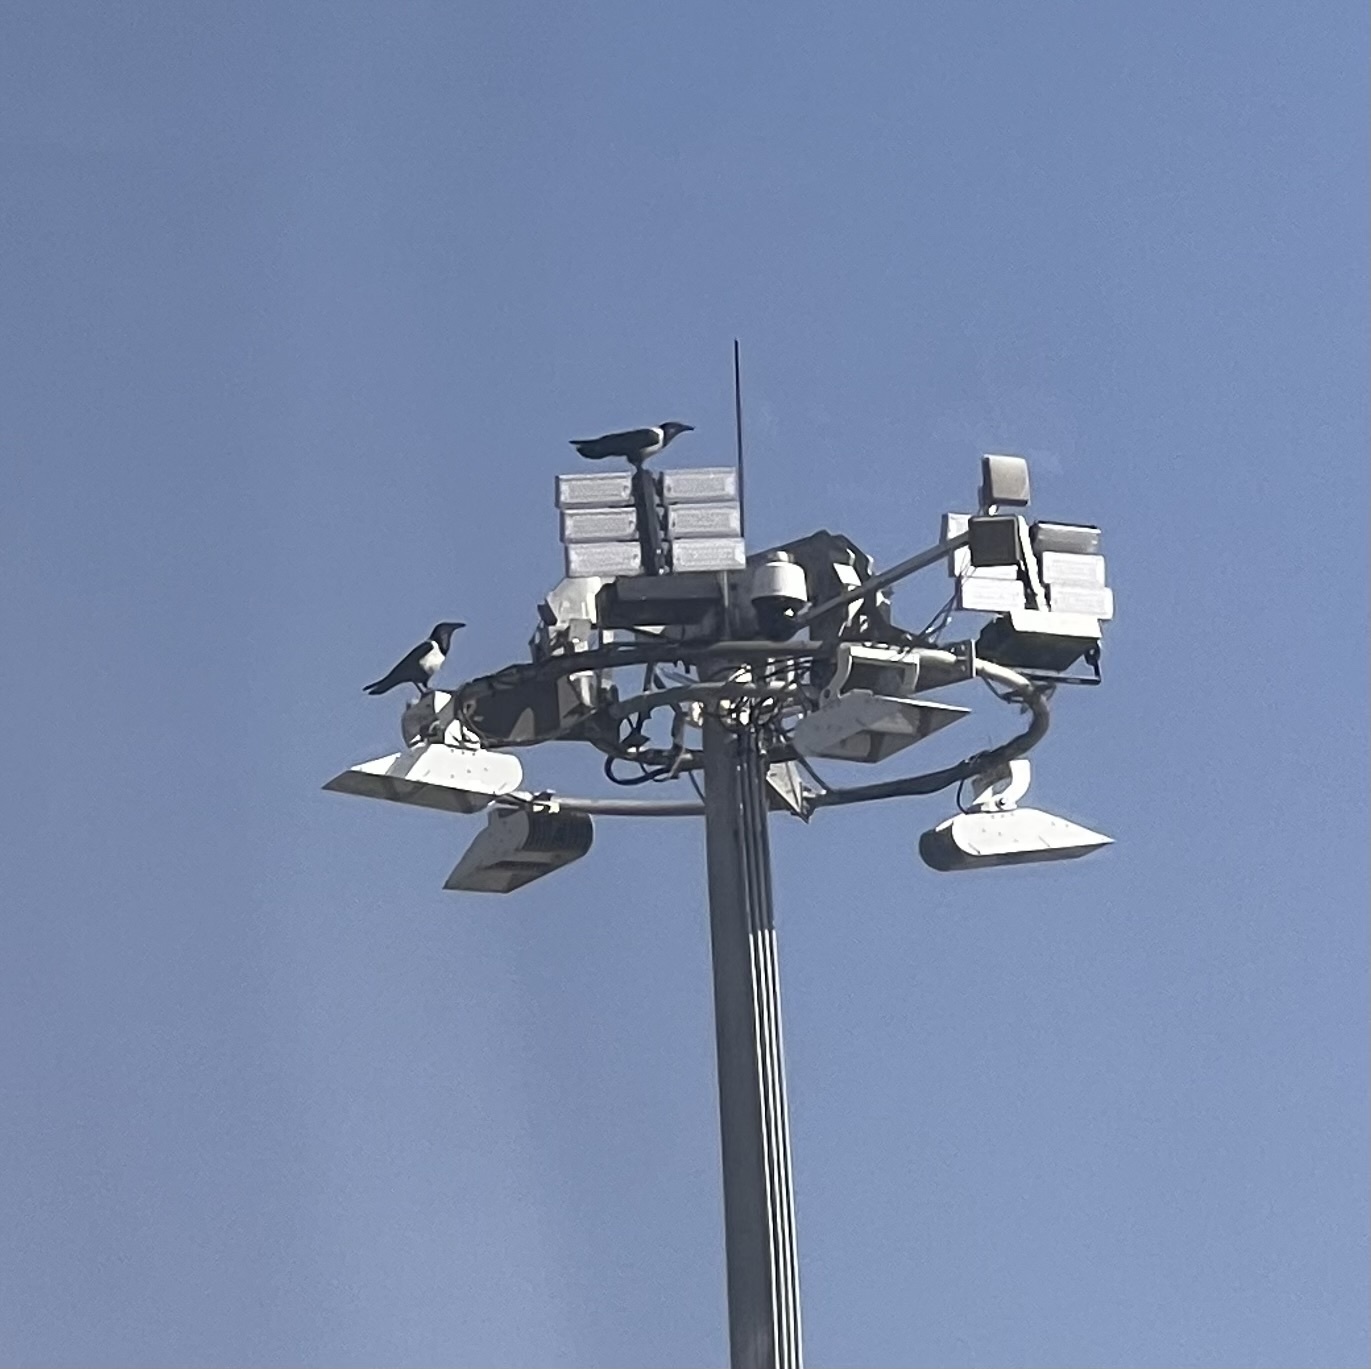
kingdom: Animalia
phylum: Chordata
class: Aves
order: Passeriformes
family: Corvidae
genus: Corvus
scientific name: Corvus albus
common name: Pied crow
